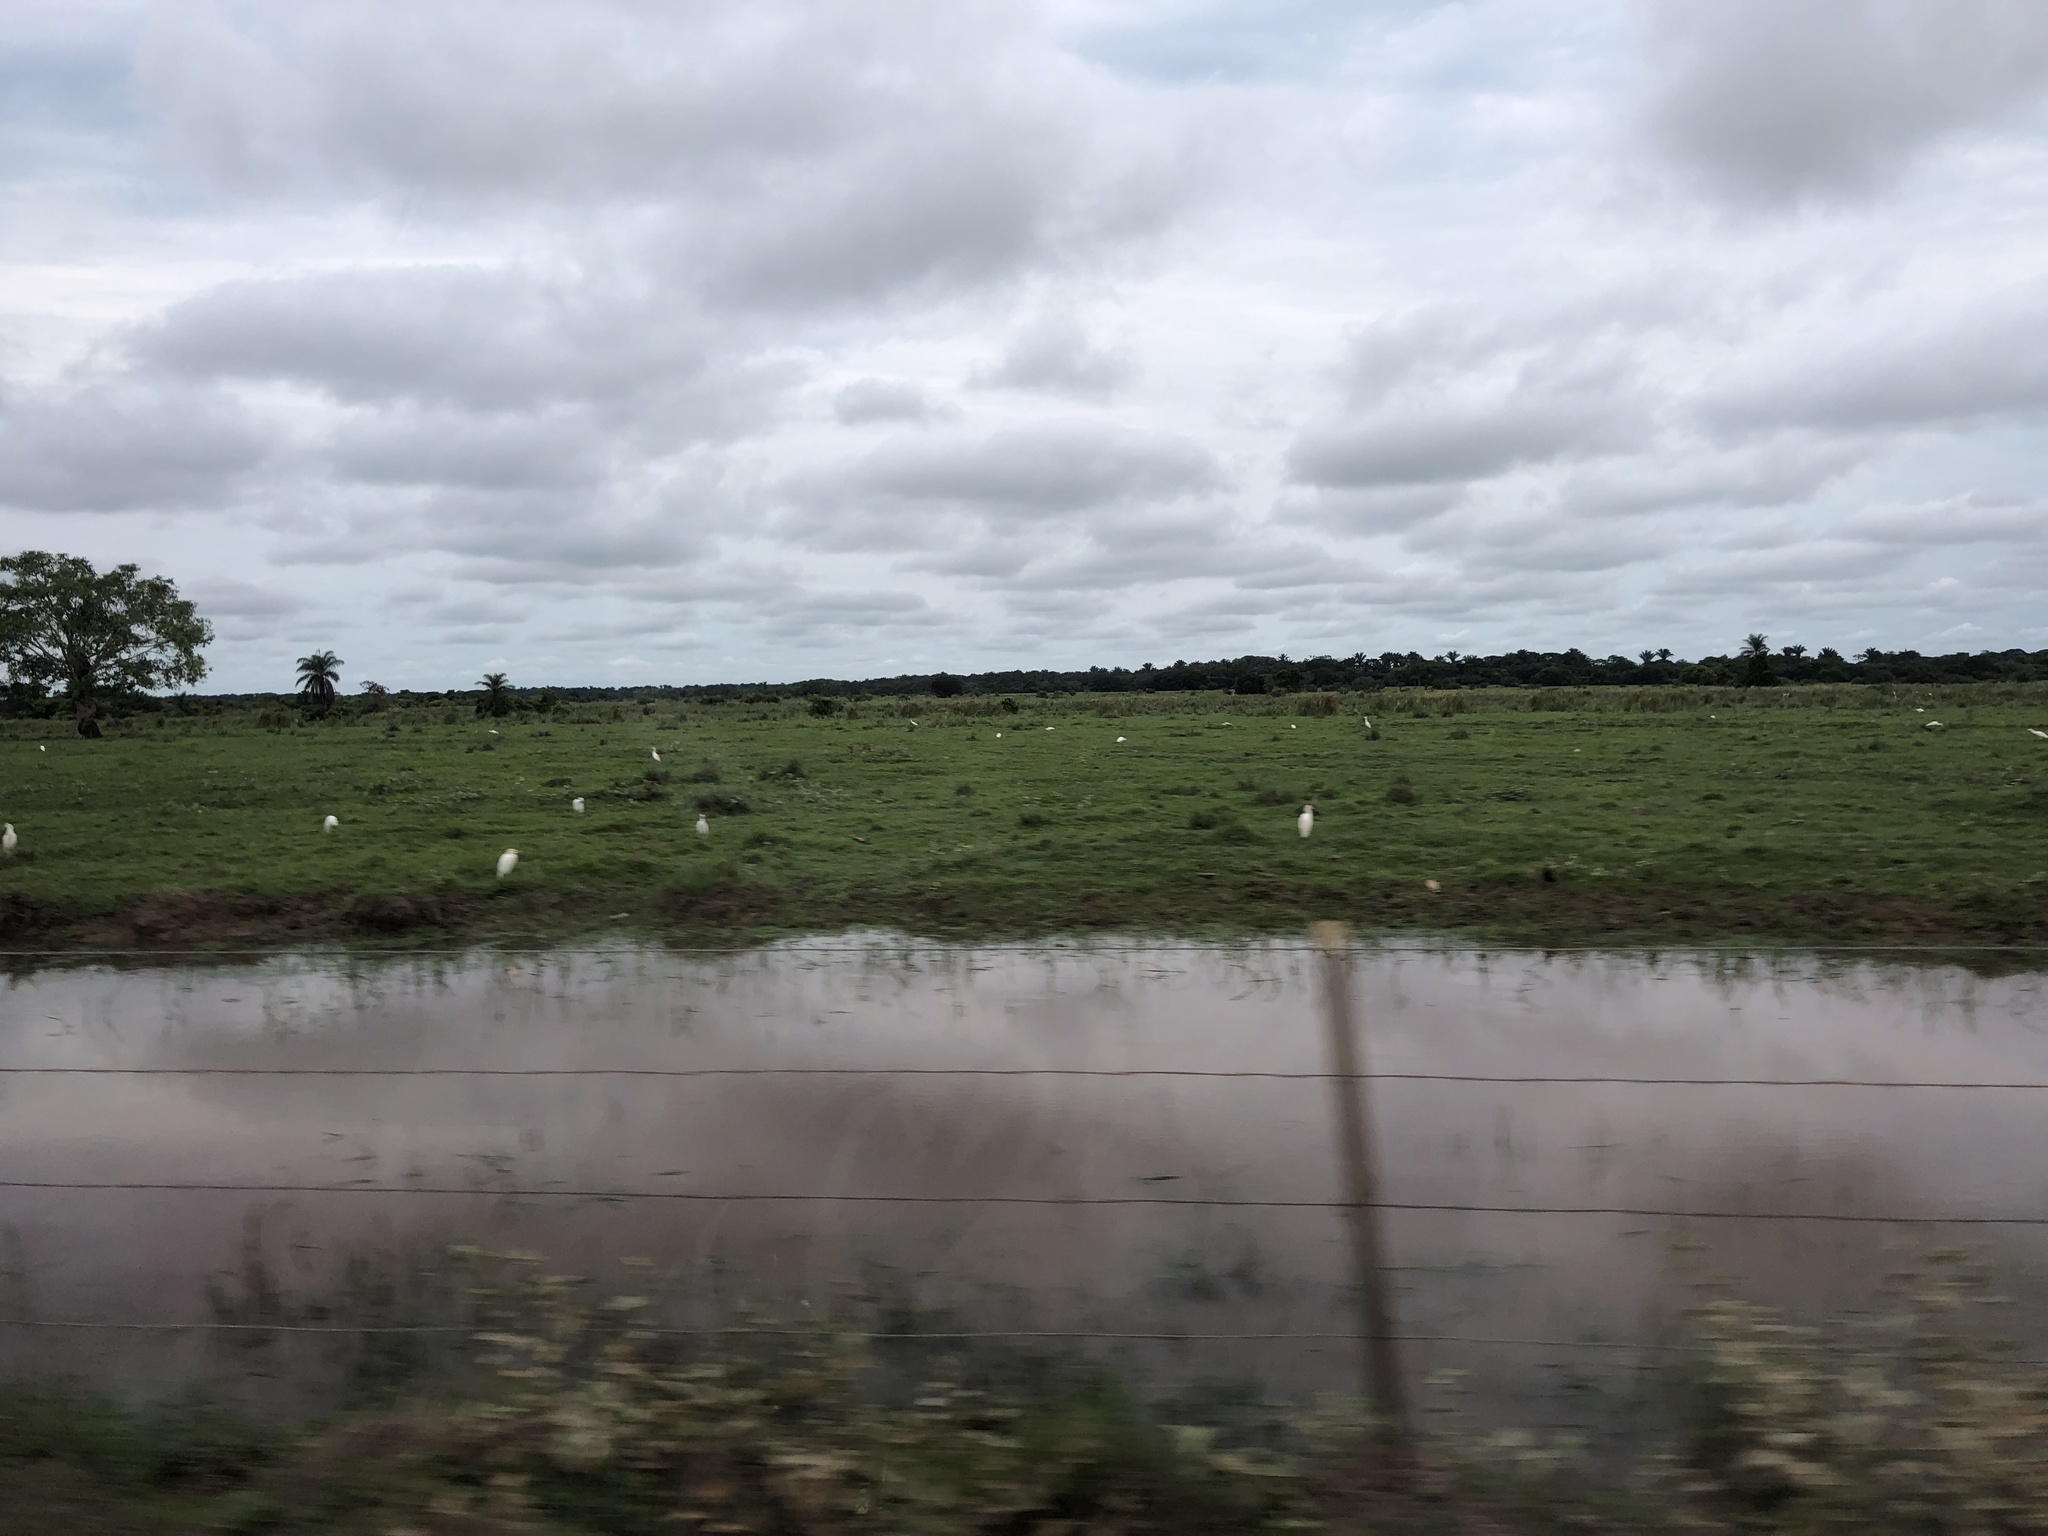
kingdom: Animalia
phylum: Chordata
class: Aves
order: Pelecaniformes
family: Ardeidae
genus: Bubulcus
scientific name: Bubulcus ibis
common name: Cattle egret
